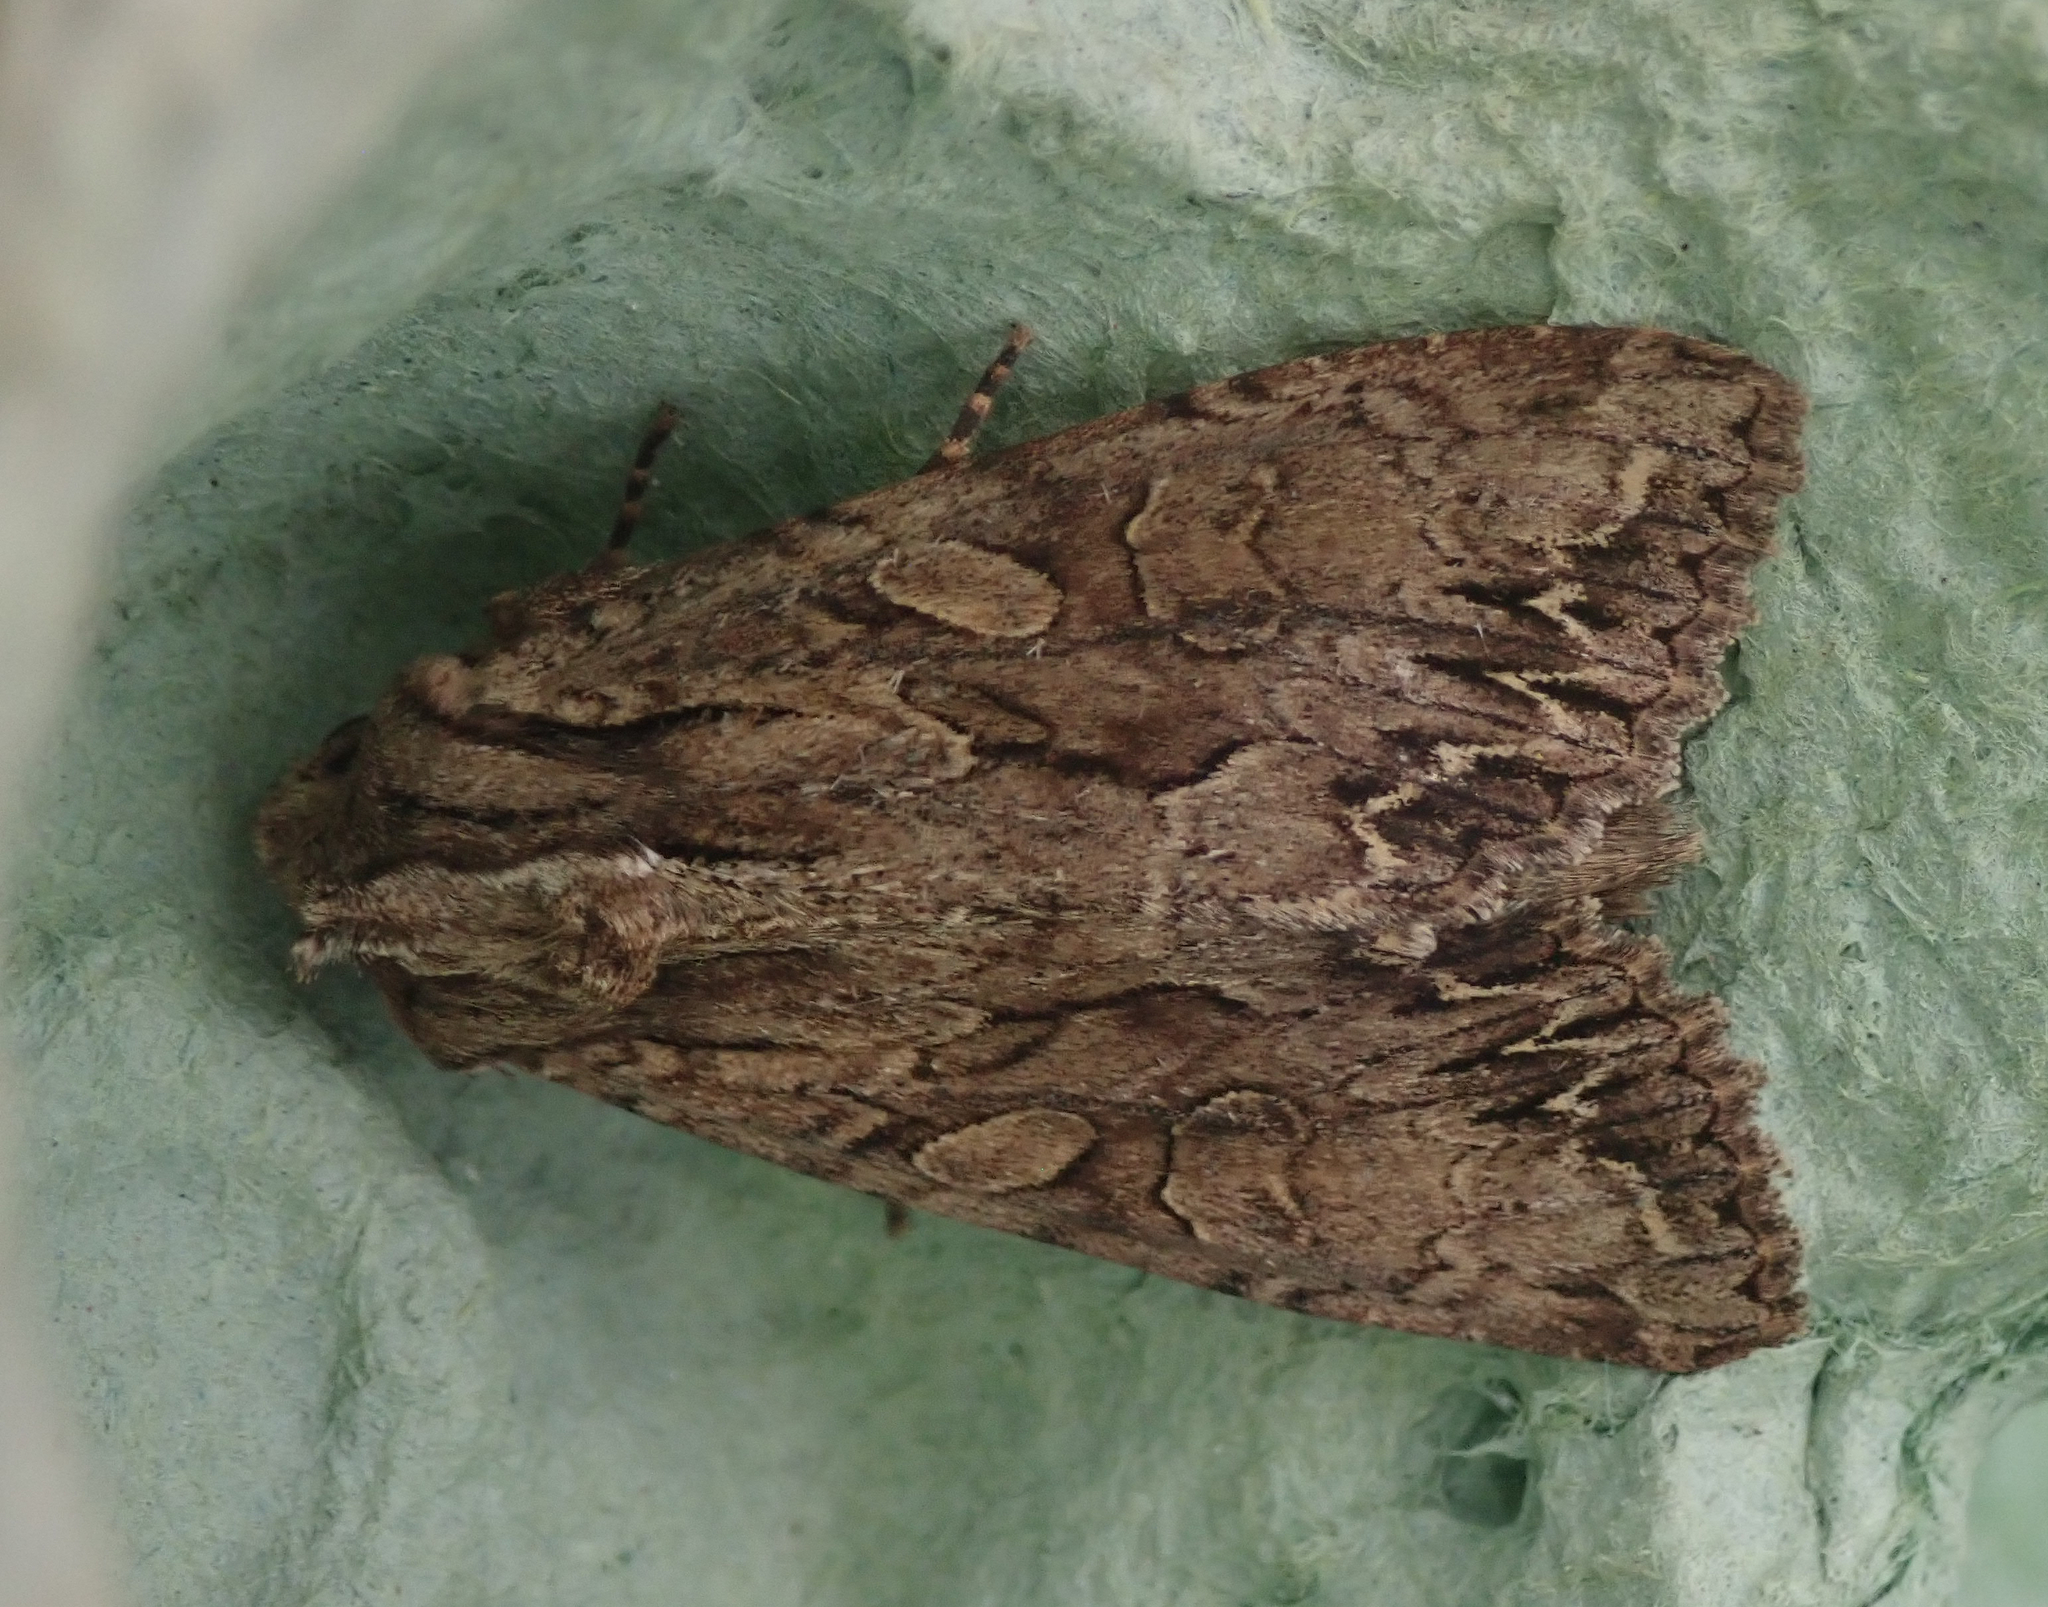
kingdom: Animalia
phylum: Arthropoda
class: Insecta
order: Lepidoptera
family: Noctuidae
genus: Apamea
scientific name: Apamea monoglypha
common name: Dark arches
